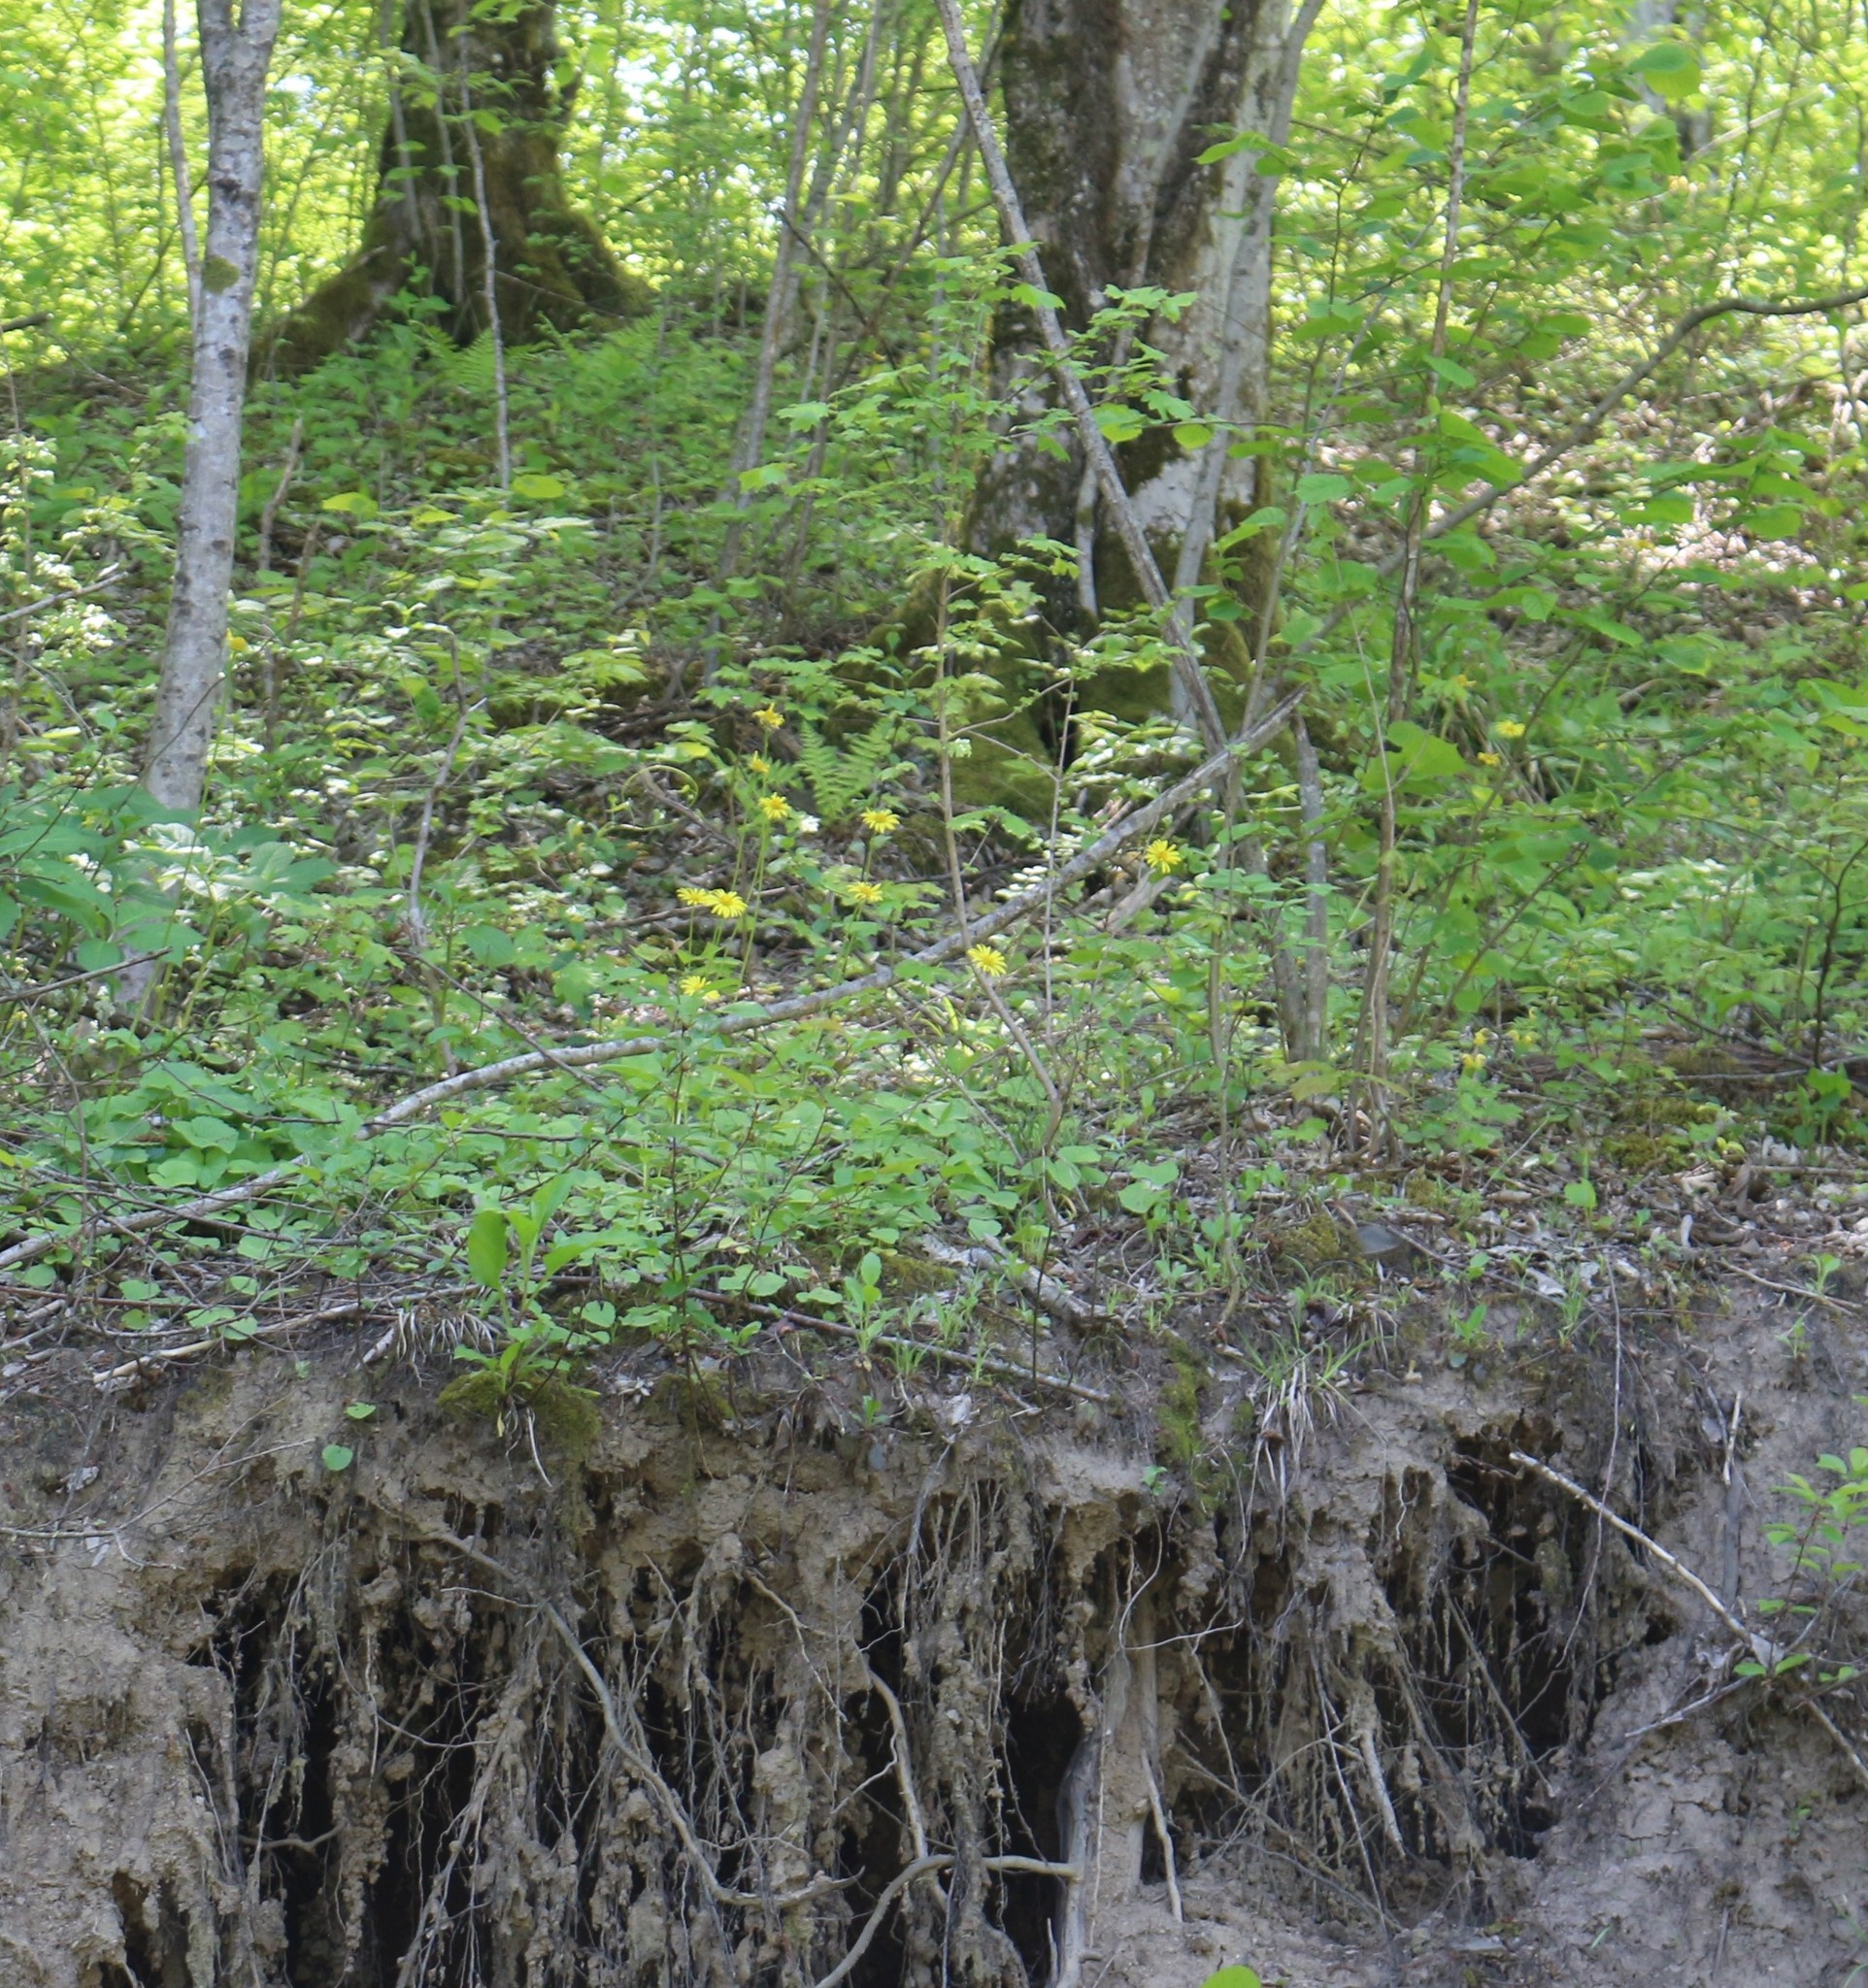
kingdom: Plantae
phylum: Tracheophyta
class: Magnoliopsida
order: Asterales
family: Asteraceae
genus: Doronicum
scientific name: Doronicum
